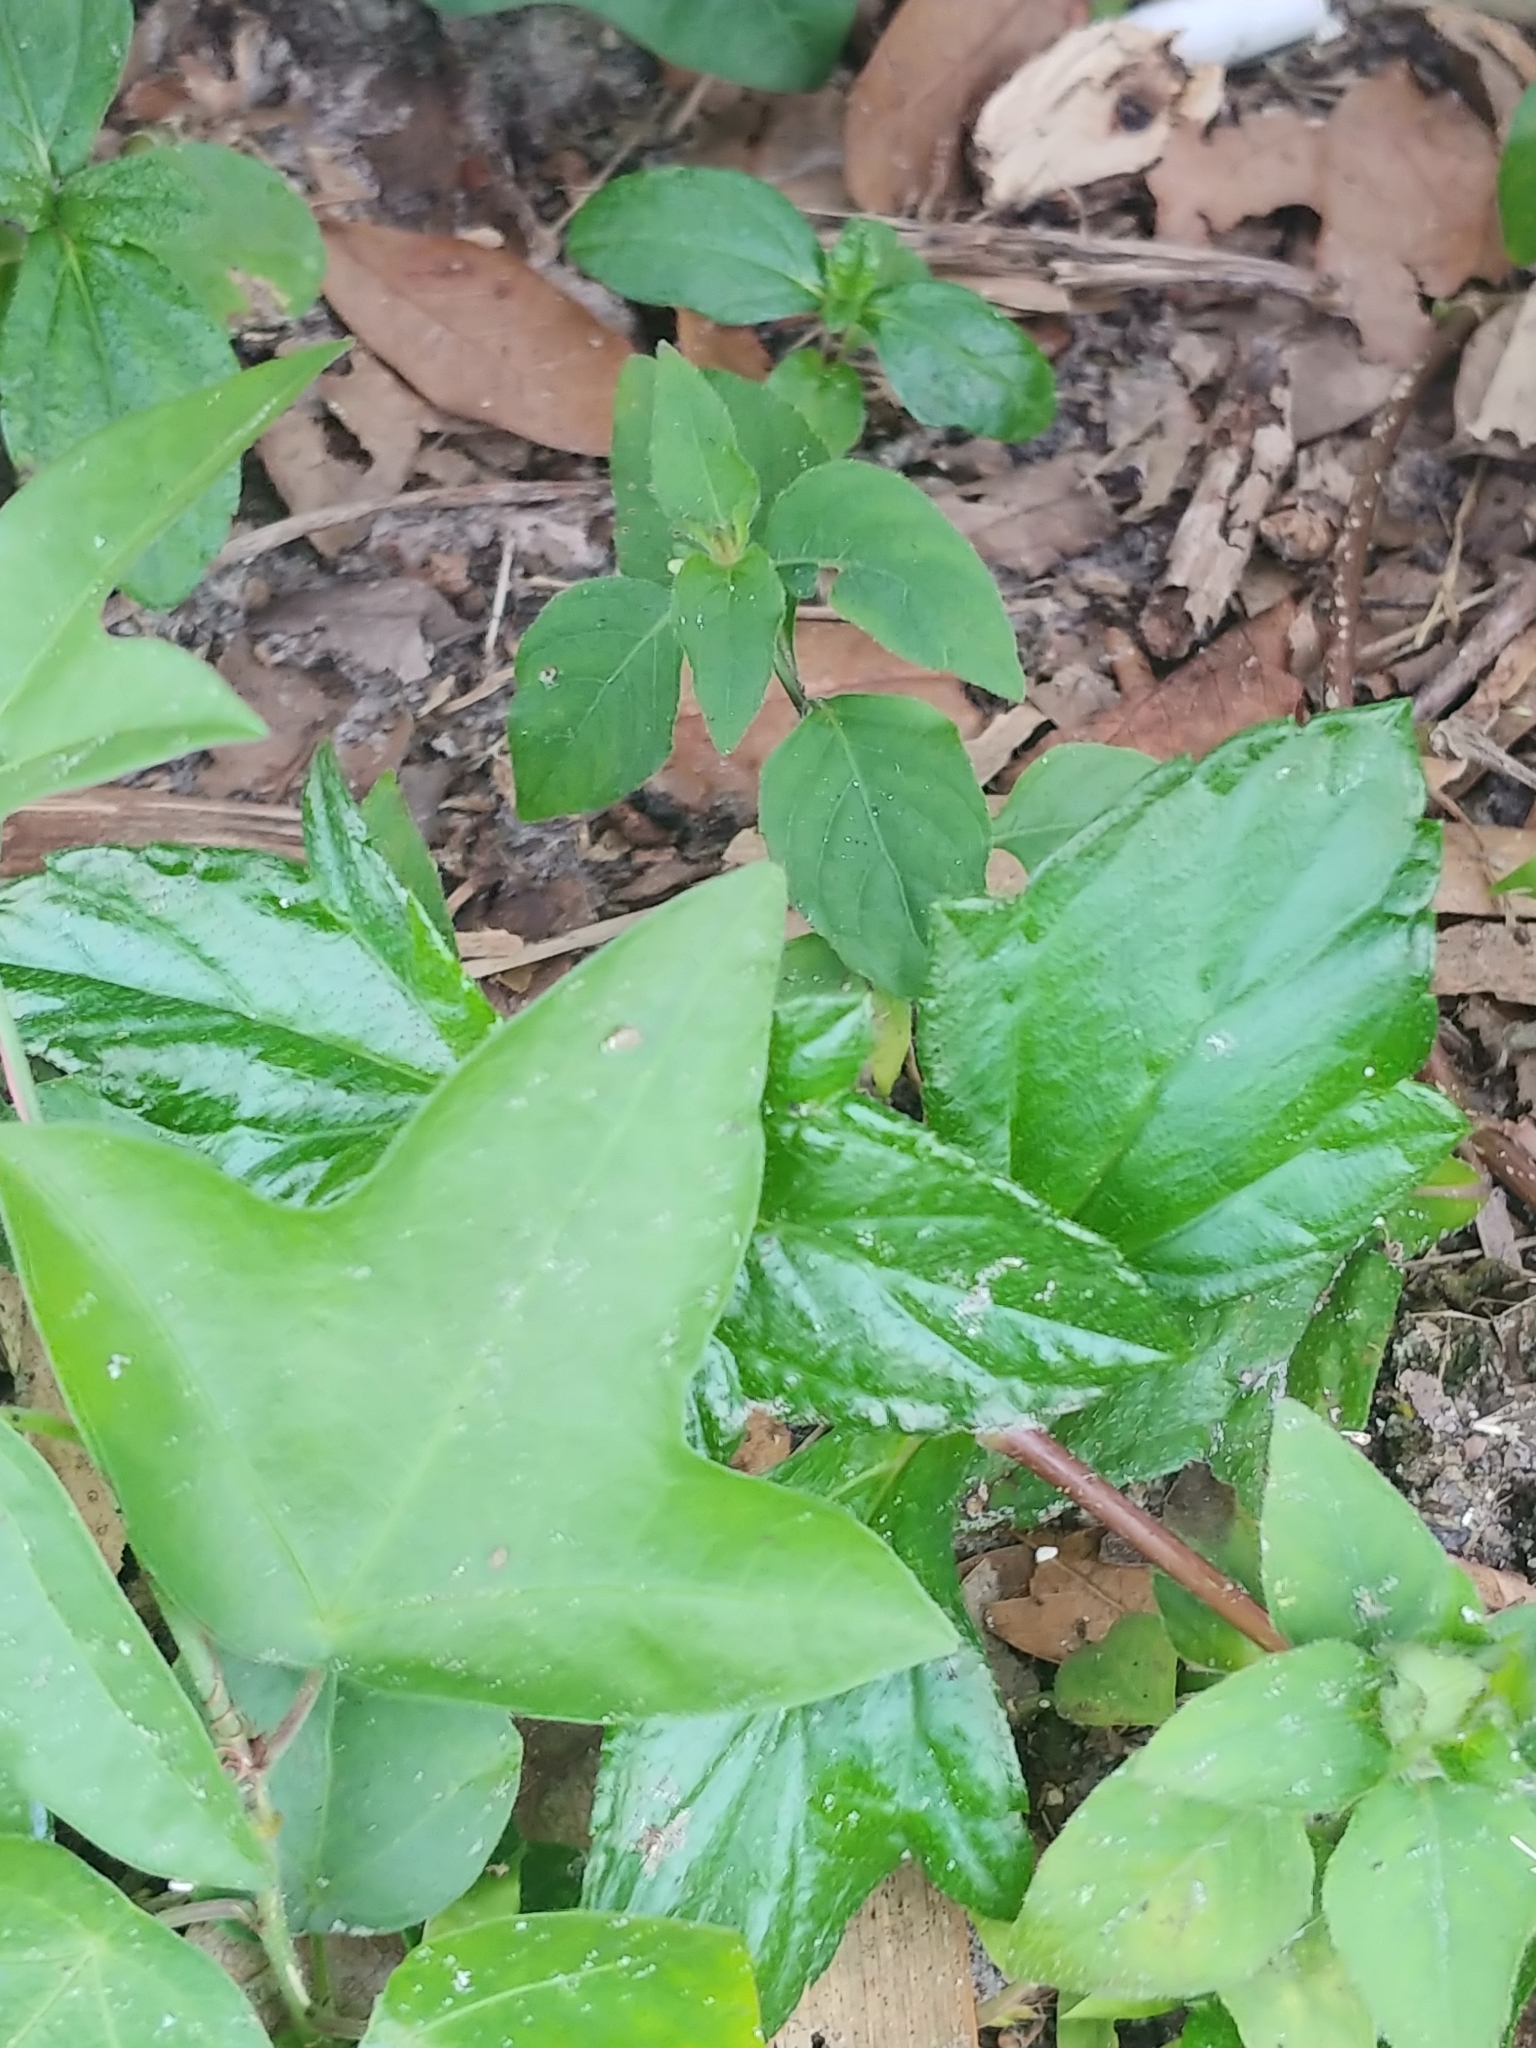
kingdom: Plantae
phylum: Tracheophyta
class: Magnoliopsida
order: Malpighiales
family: Passifloraceae
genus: Passiflora
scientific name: Passiflora pallida
